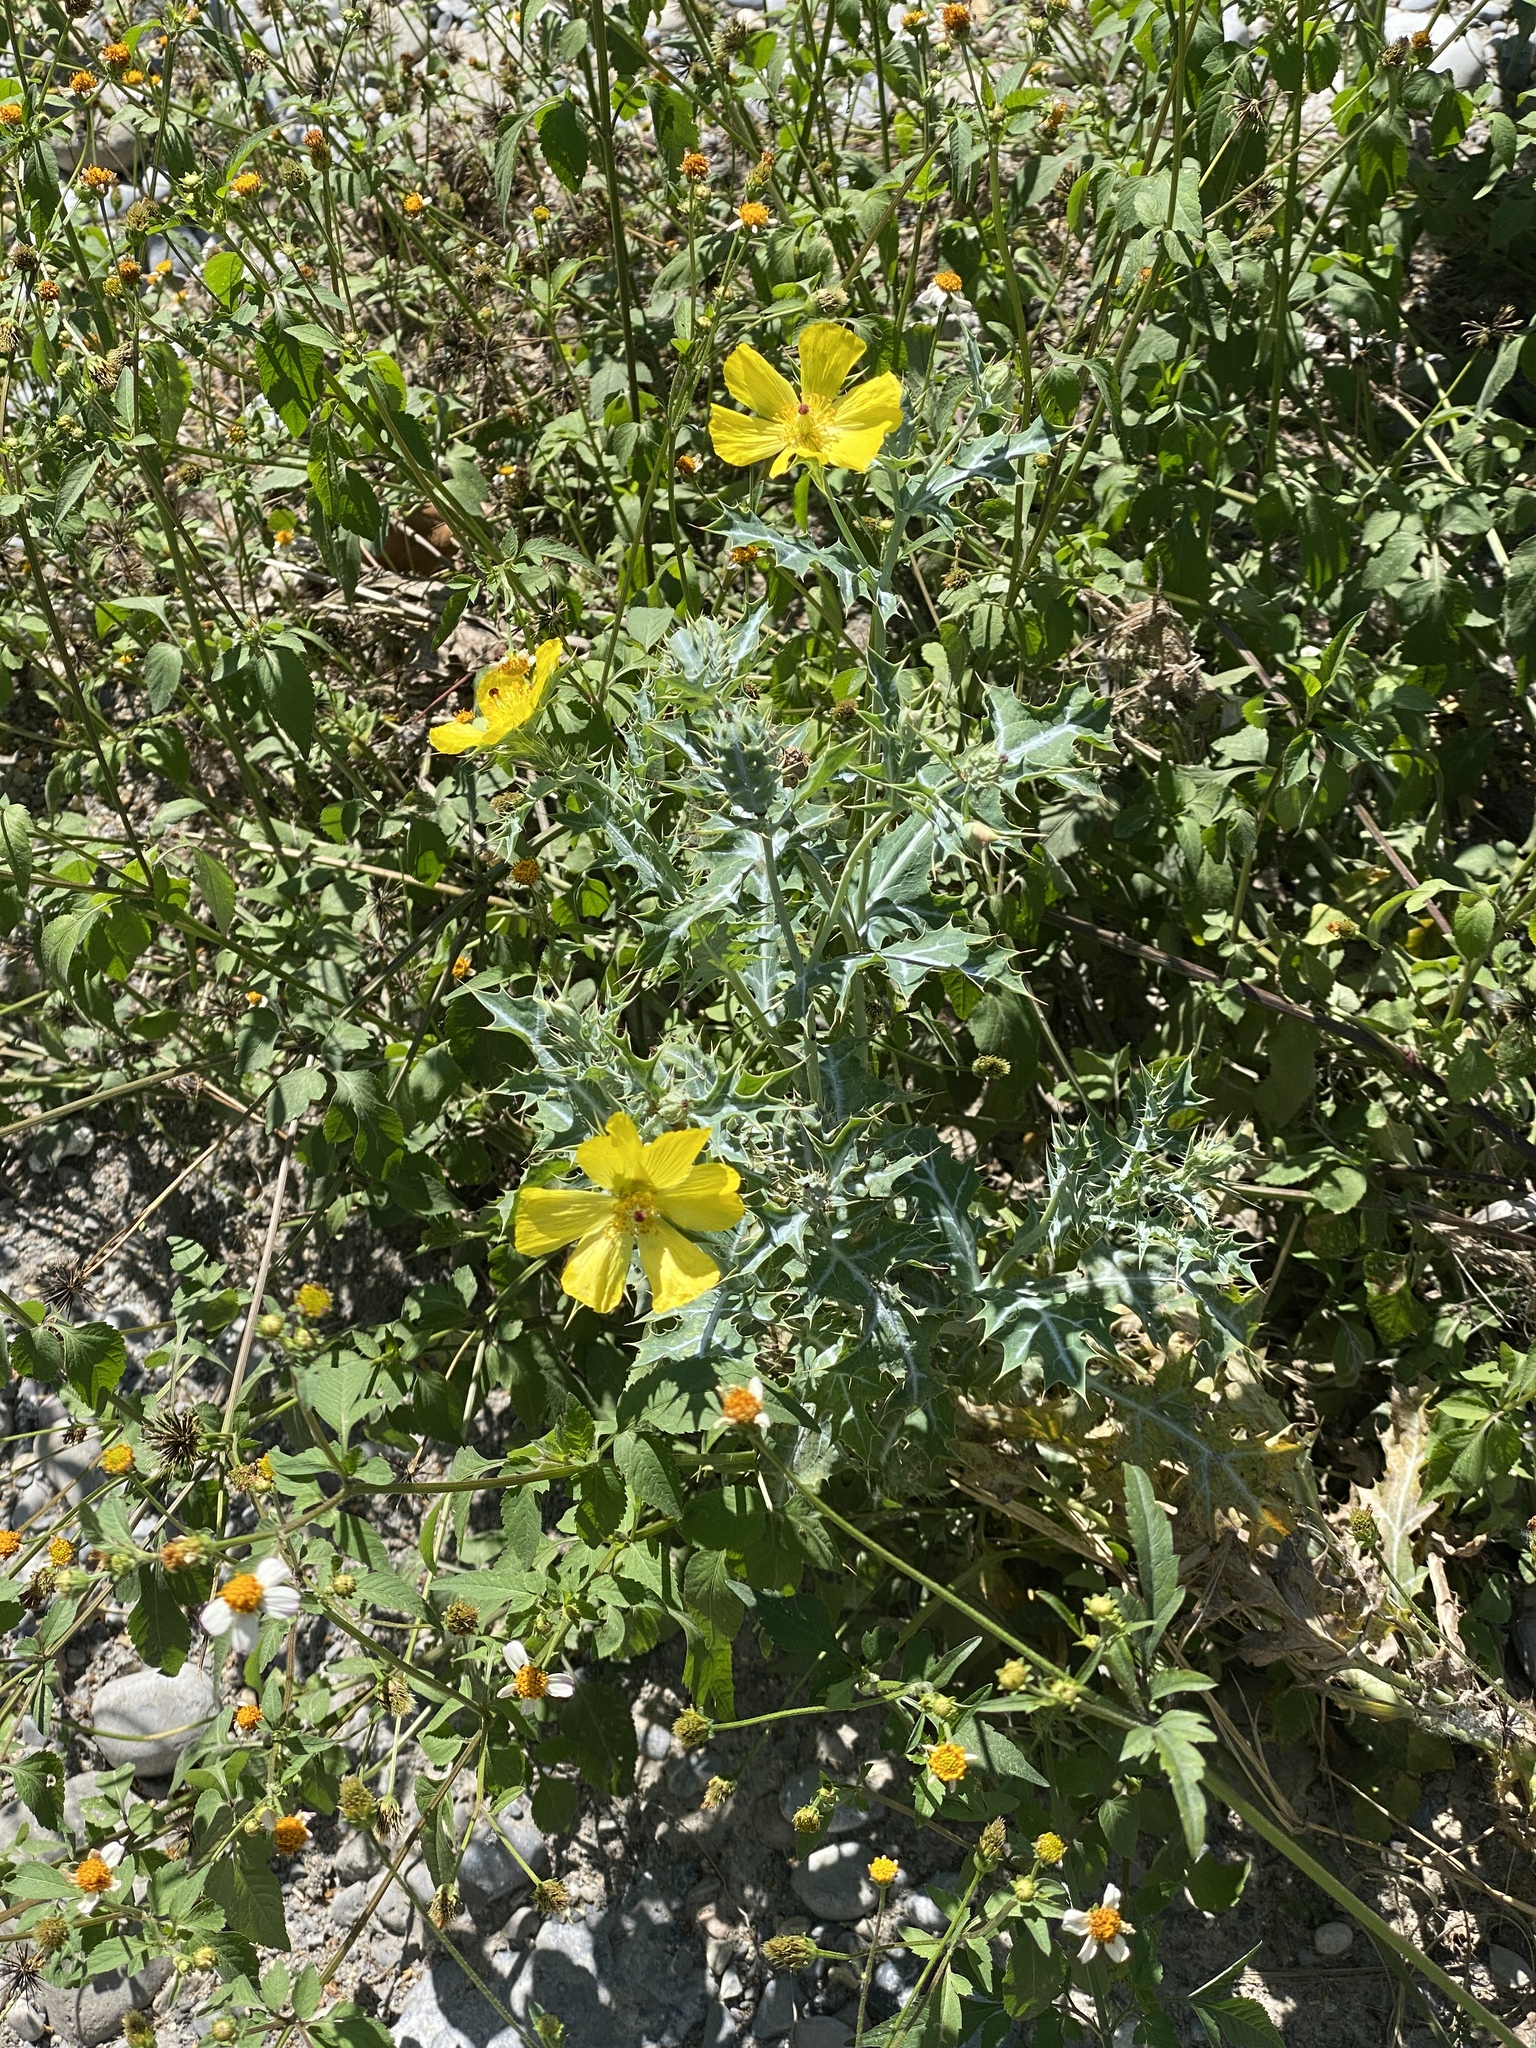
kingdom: Plantae
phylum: Tracheophyta
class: Magnoliopsida
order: Ranunculales
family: Papaveraceae
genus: Argemone
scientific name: Argemone mexicana
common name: Mexican poppy
